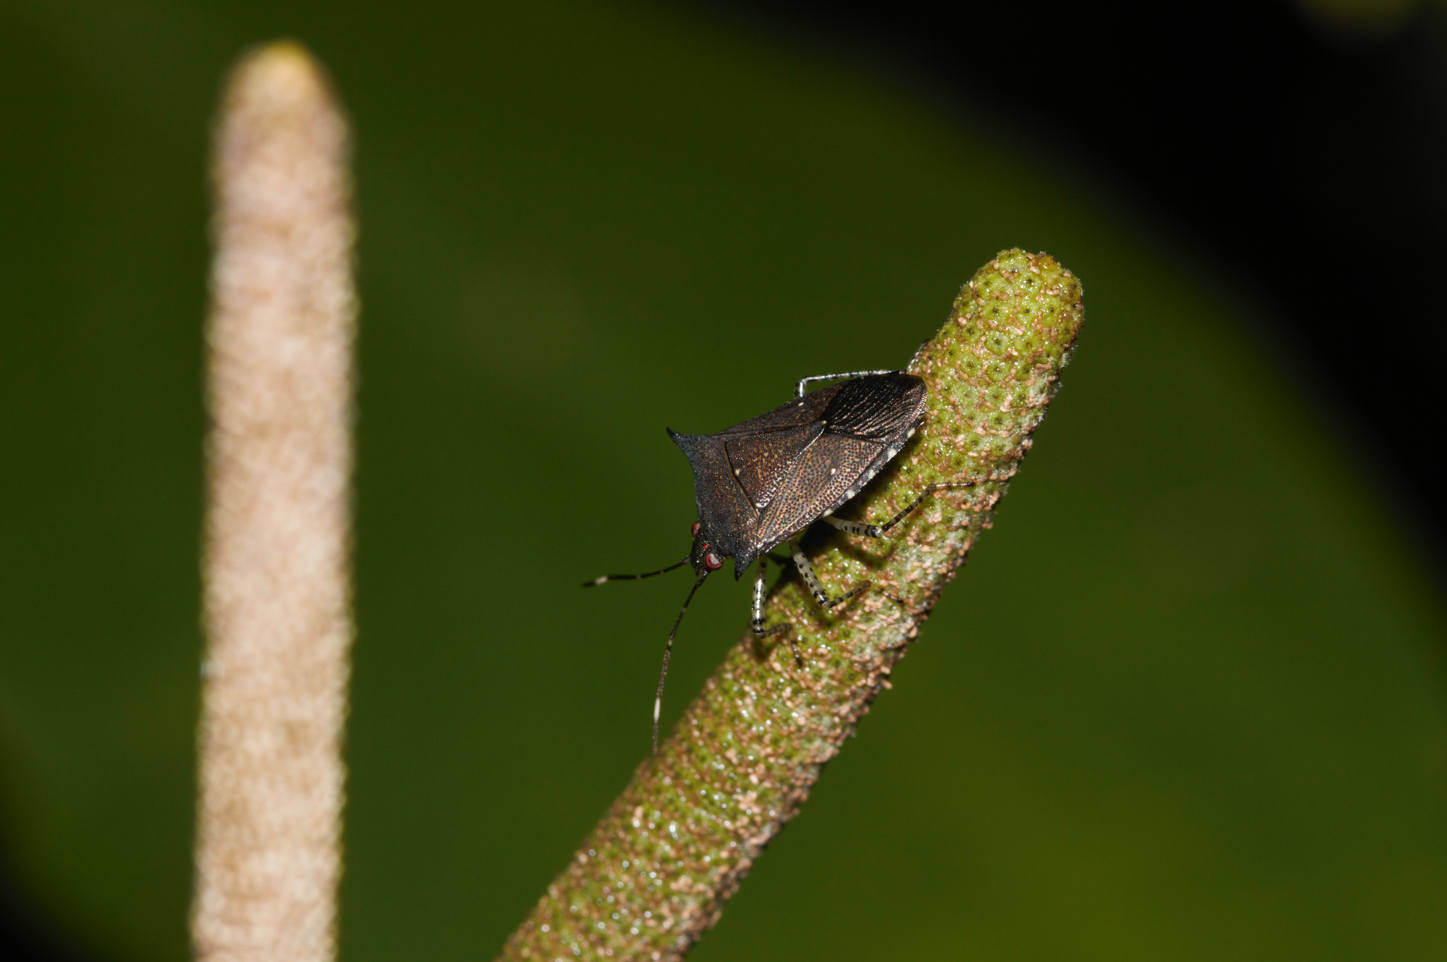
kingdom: Animalia
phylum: Arthropoda
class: Insecta
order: Hemiptera
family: Pentatomidae
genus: Sibaria
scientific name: Sibaria armata
